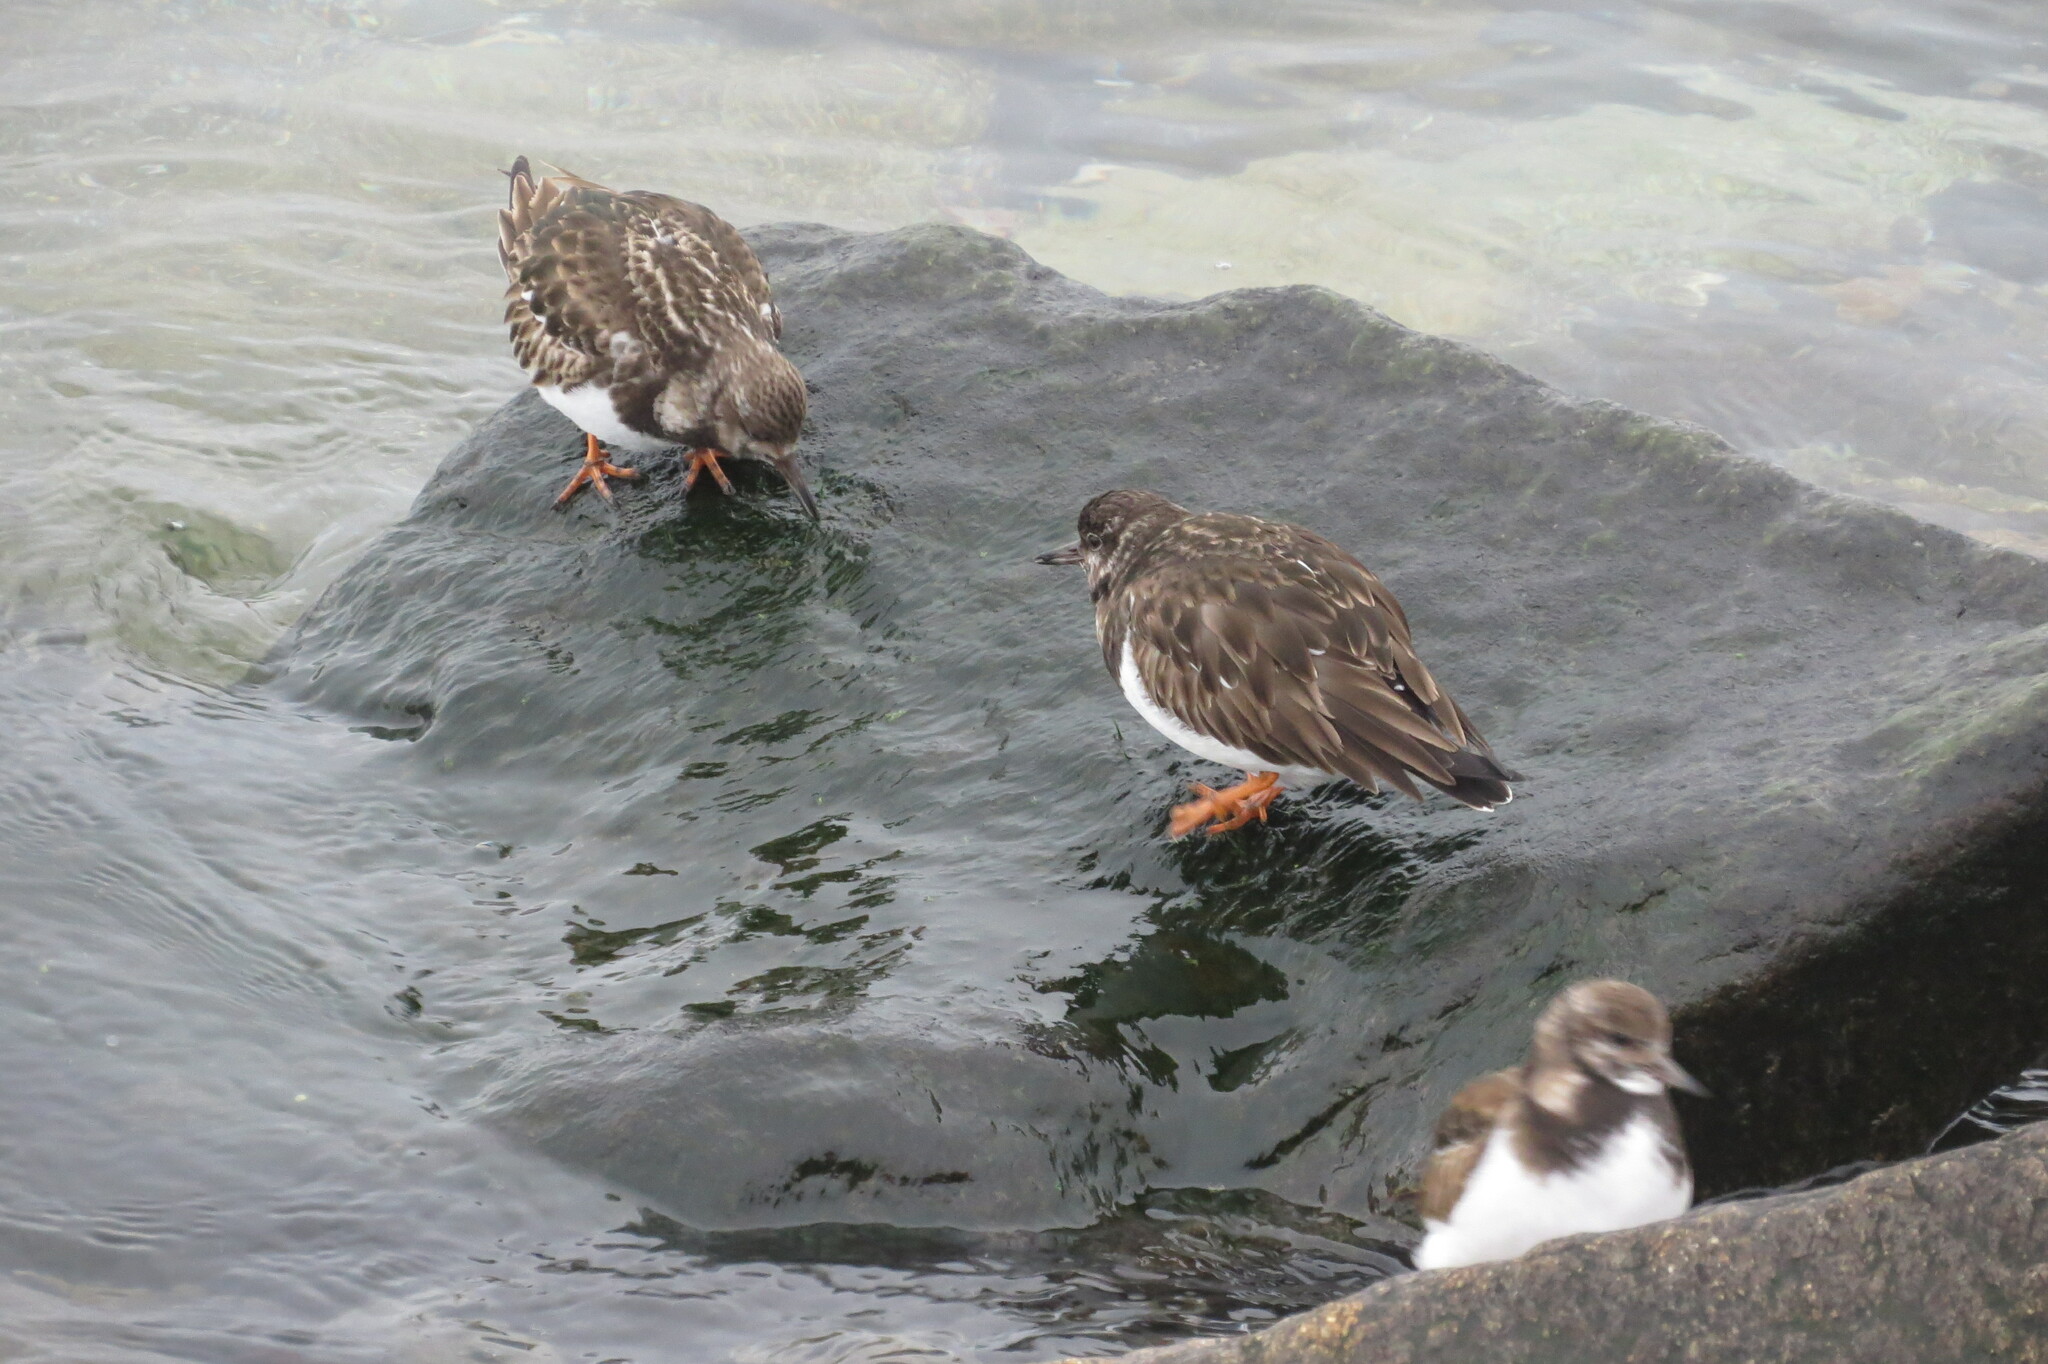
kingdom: Animalia
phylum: Chordata
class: Aves
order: Charadriiformes
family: Scolopacidae
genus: Arenaria
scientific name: Arenaria interpres
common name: Ruddy turnstone
